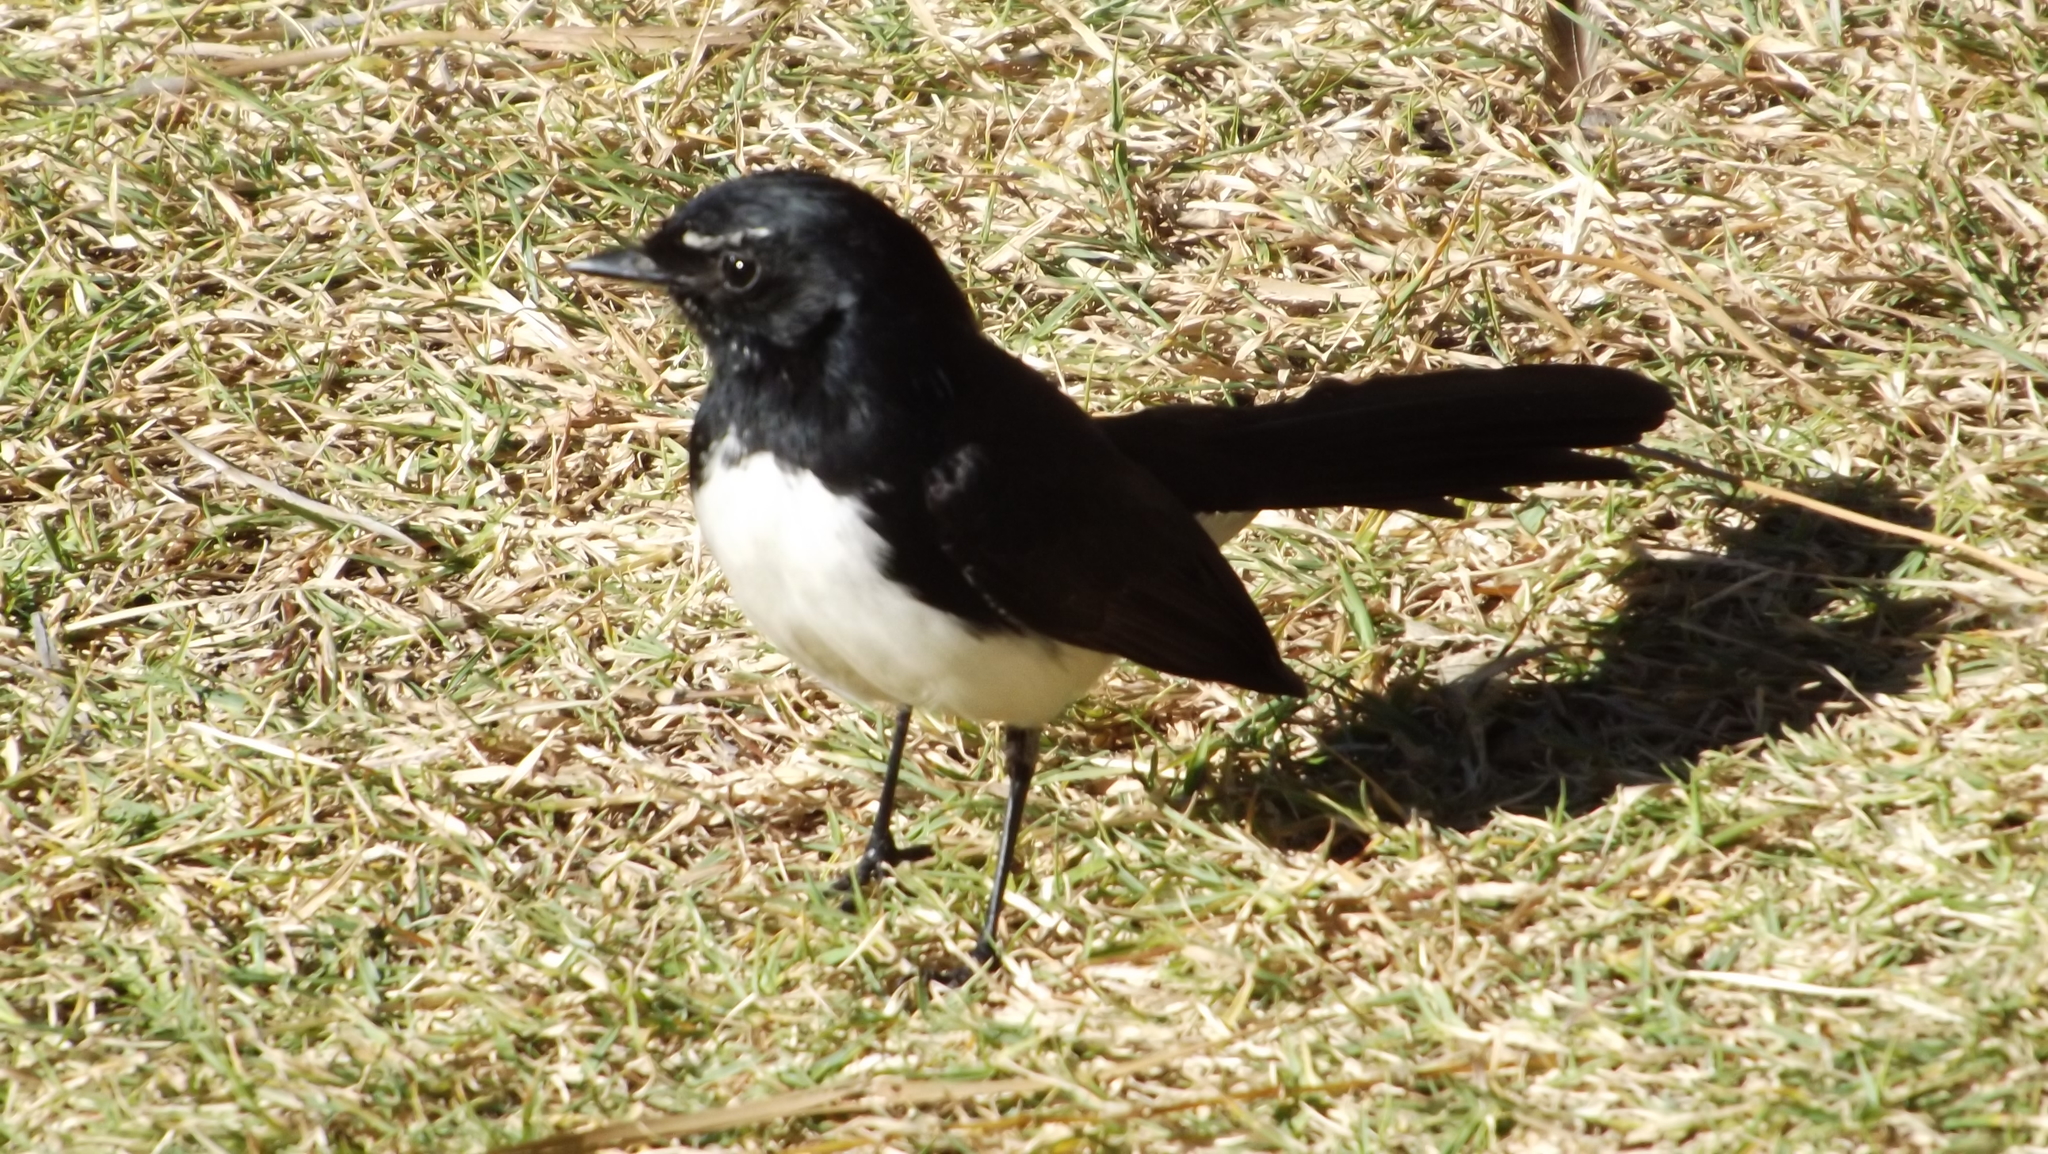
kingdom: Animalia
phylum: Chordata
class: Aves
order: Passeriformes
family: Rhipiduridae
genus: Rhipidura
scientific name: Rhipidura leucophrys
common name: Willie wagtail
